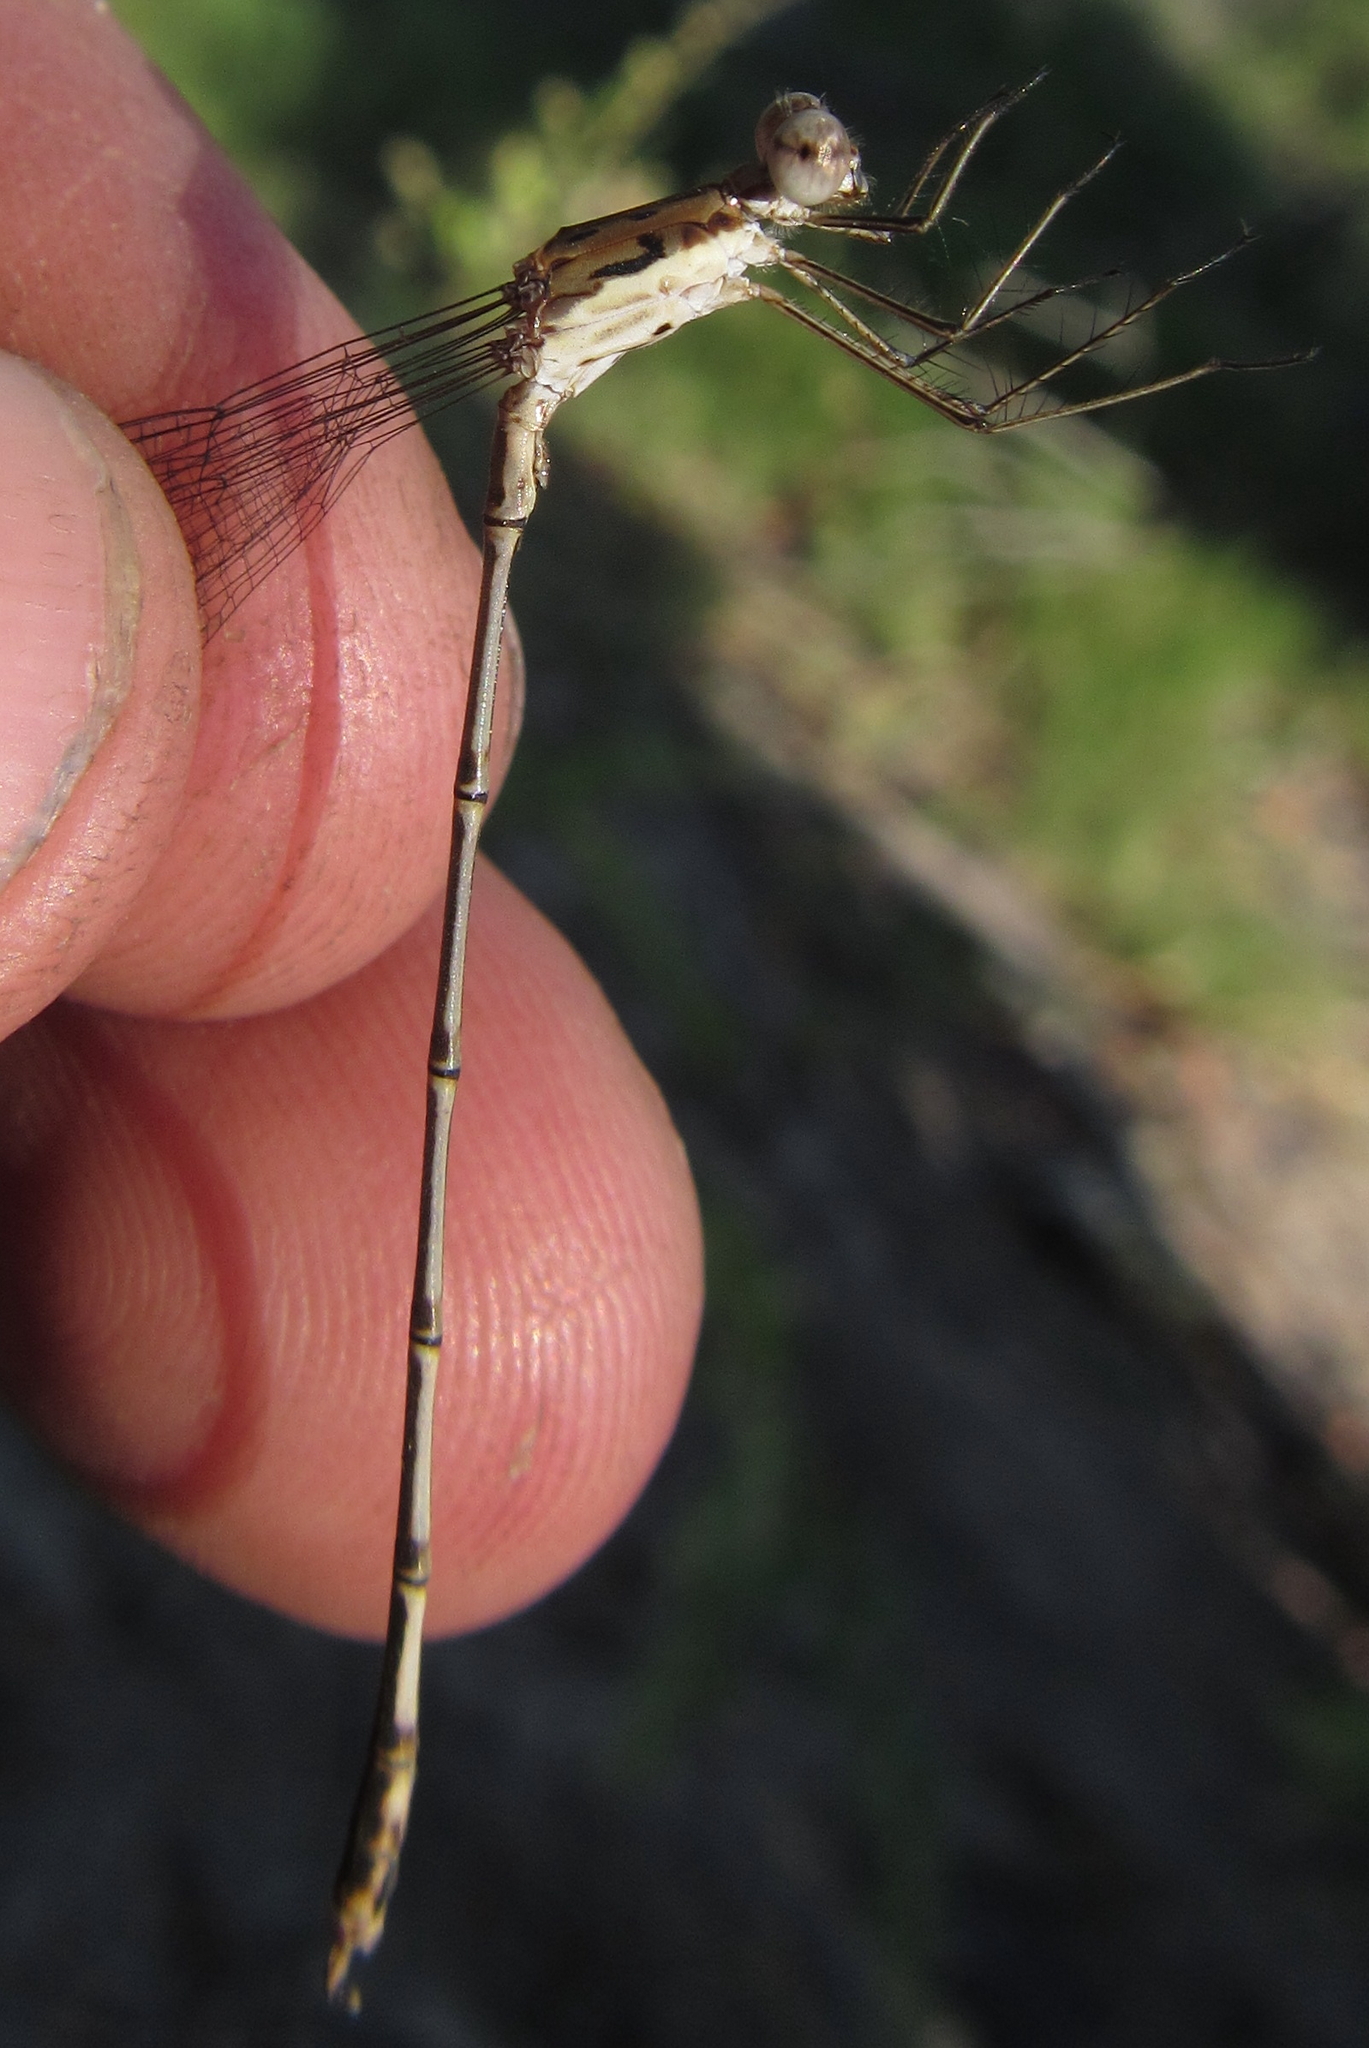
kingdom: Animalia
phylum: Arthropoda
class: Insecta
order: Odonata
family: Lestidae
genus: Lestes
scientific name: Lestes pinheyi
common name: Pinhey's spreadwing
